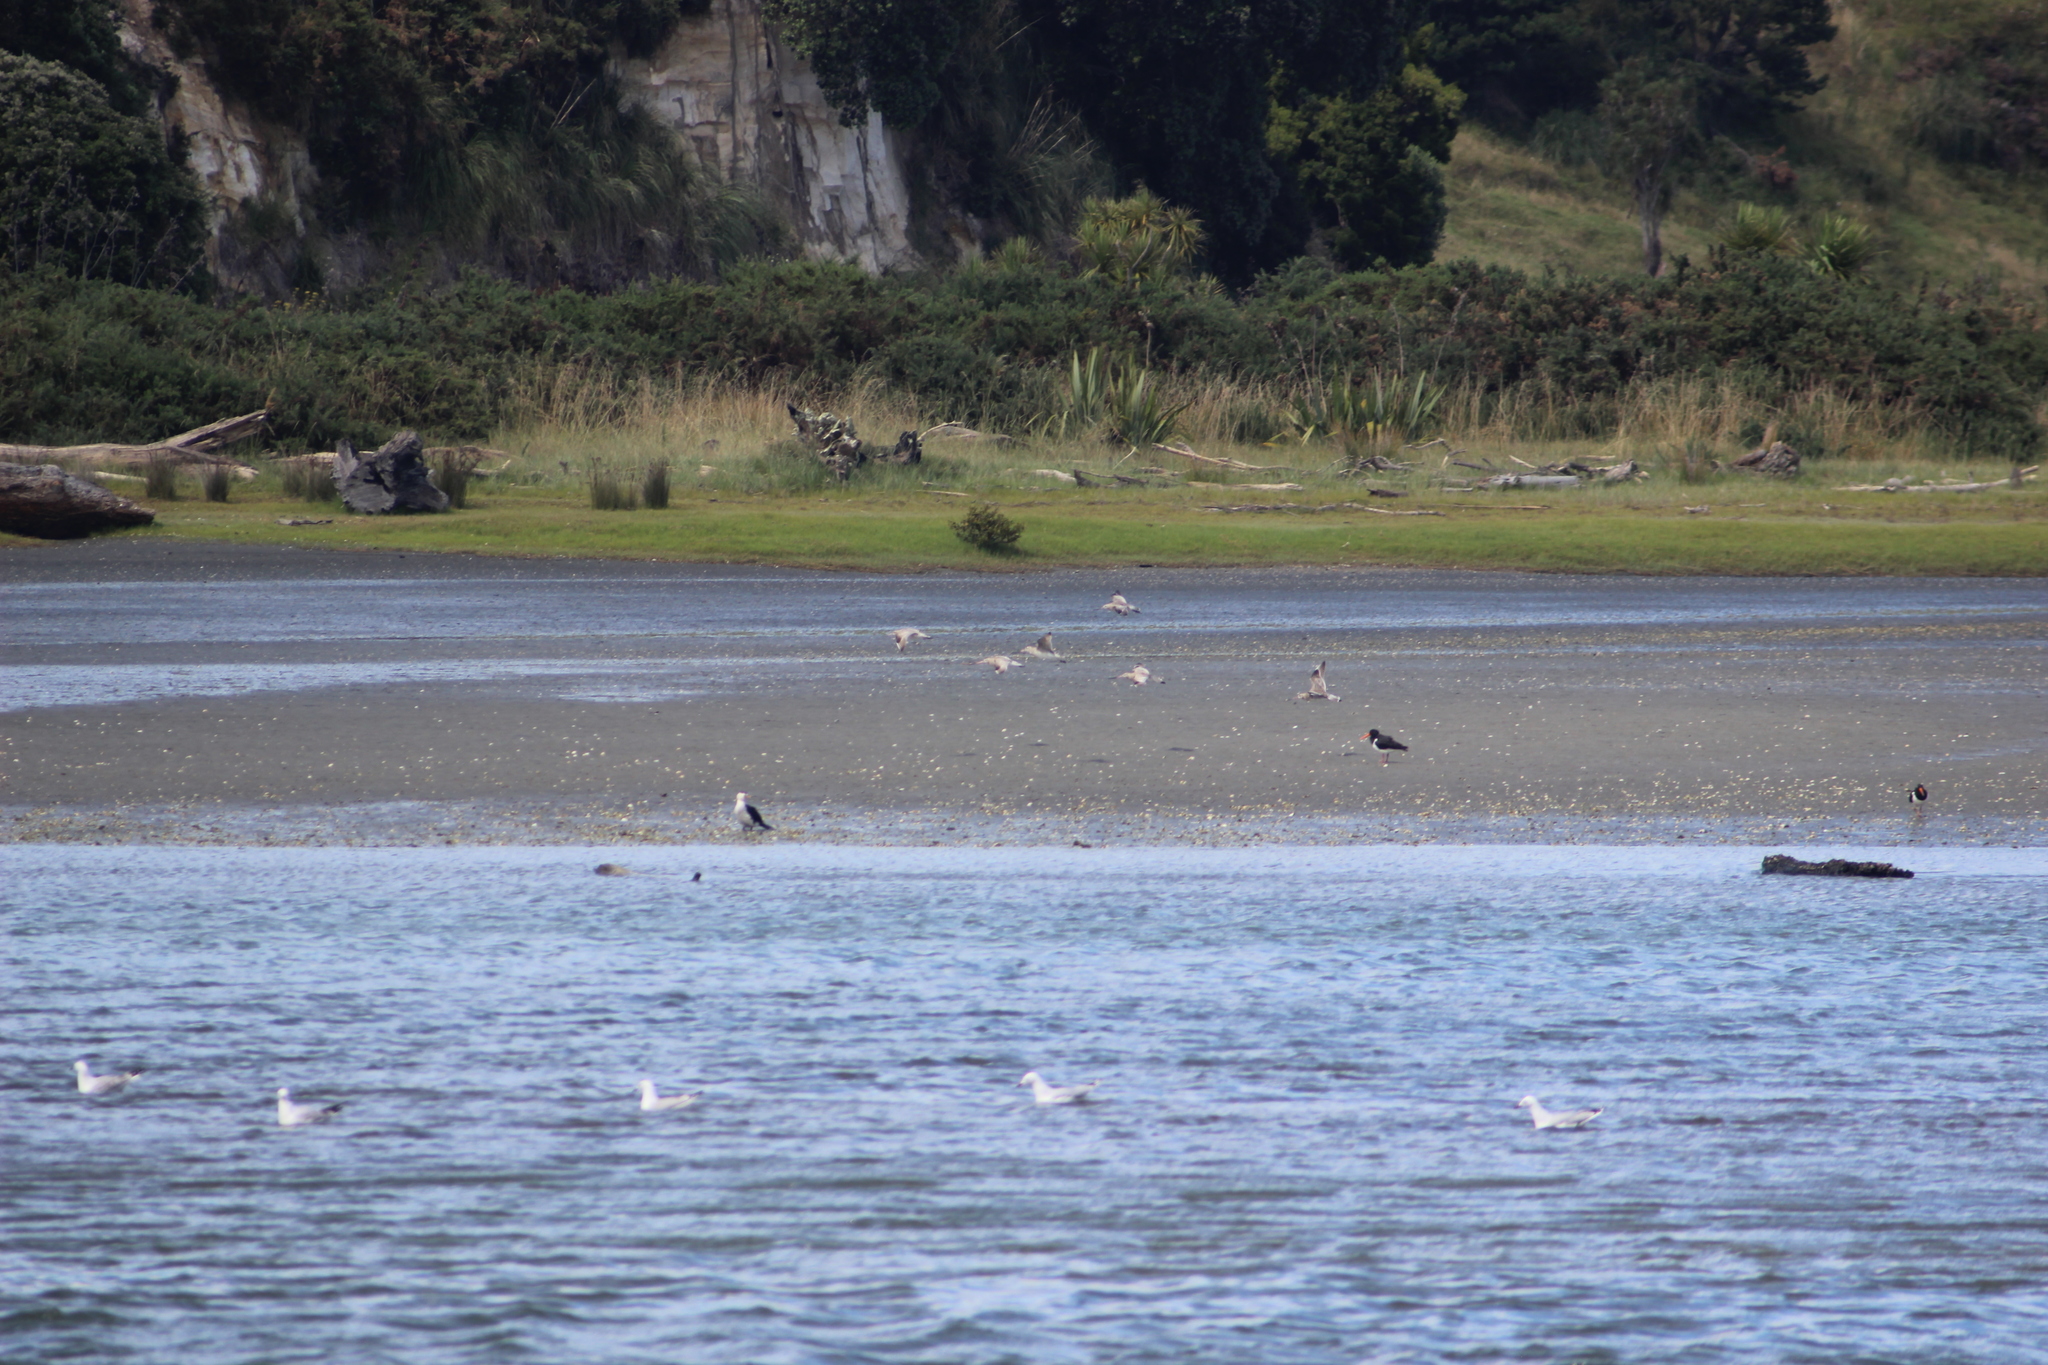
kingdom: Animalia
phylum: Chordata
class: Aves
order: Charadriiformes
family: Scolopacidae
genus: Limosa
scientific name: Limosa lapponica
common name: Bar-tailed godwit
